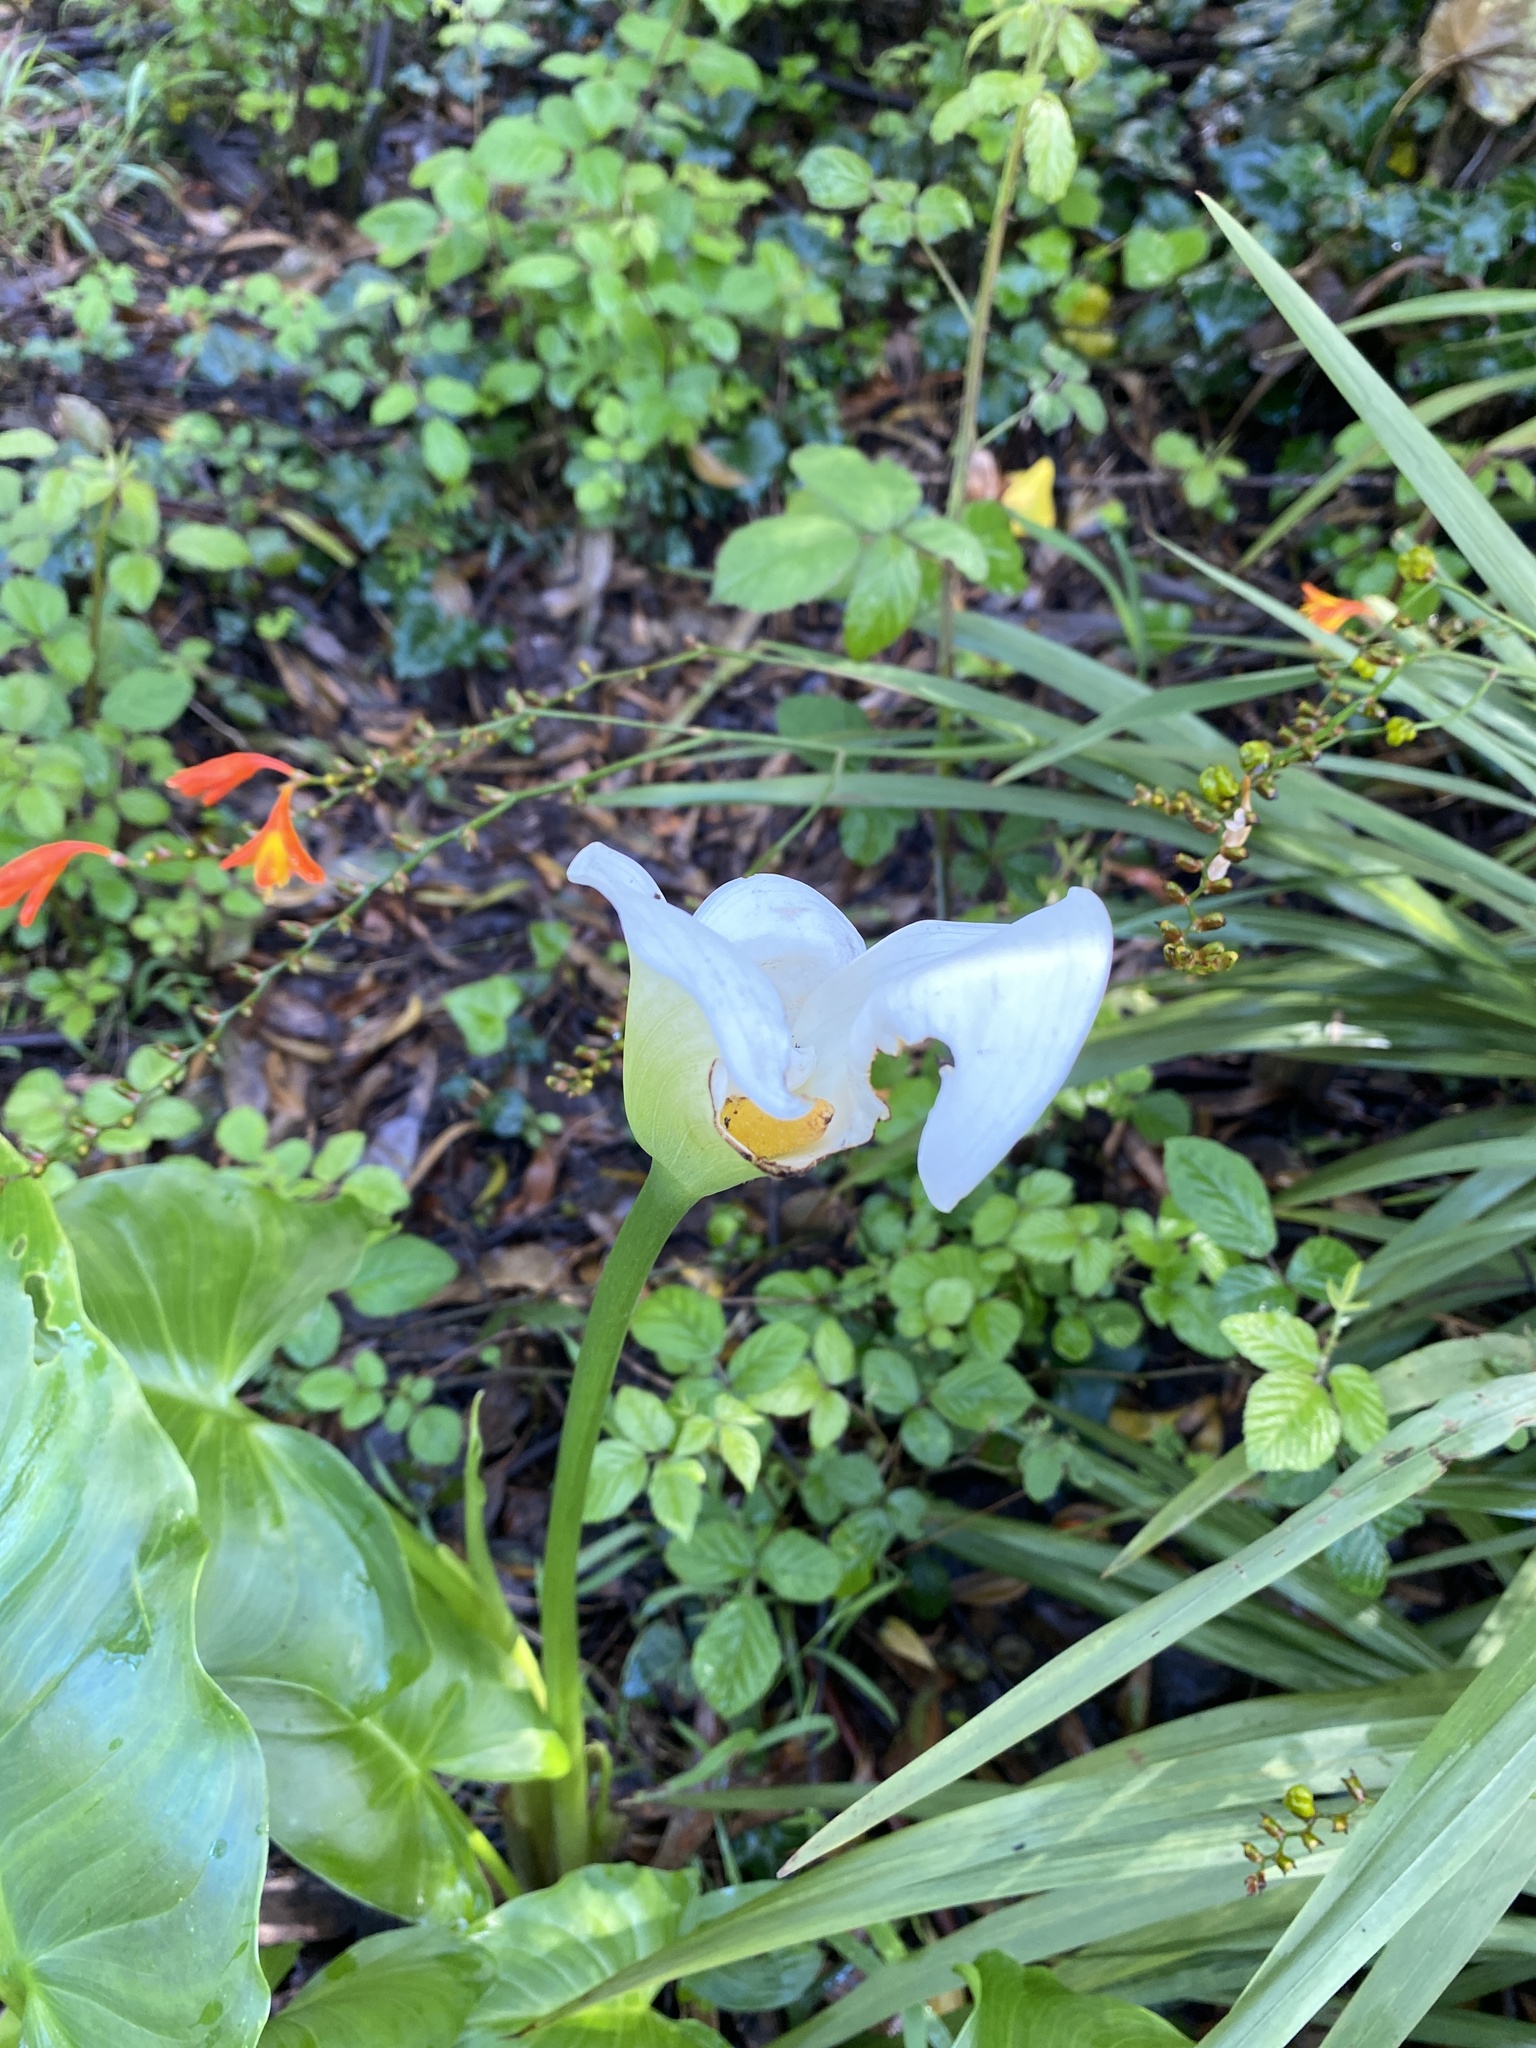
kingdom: Plantae
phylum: Tracheophyta
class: Liliopsida
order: Alismatales
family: Araceae
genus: Zantedeschia
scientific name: Zantedeschia aethiopica
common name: Altar-lily
